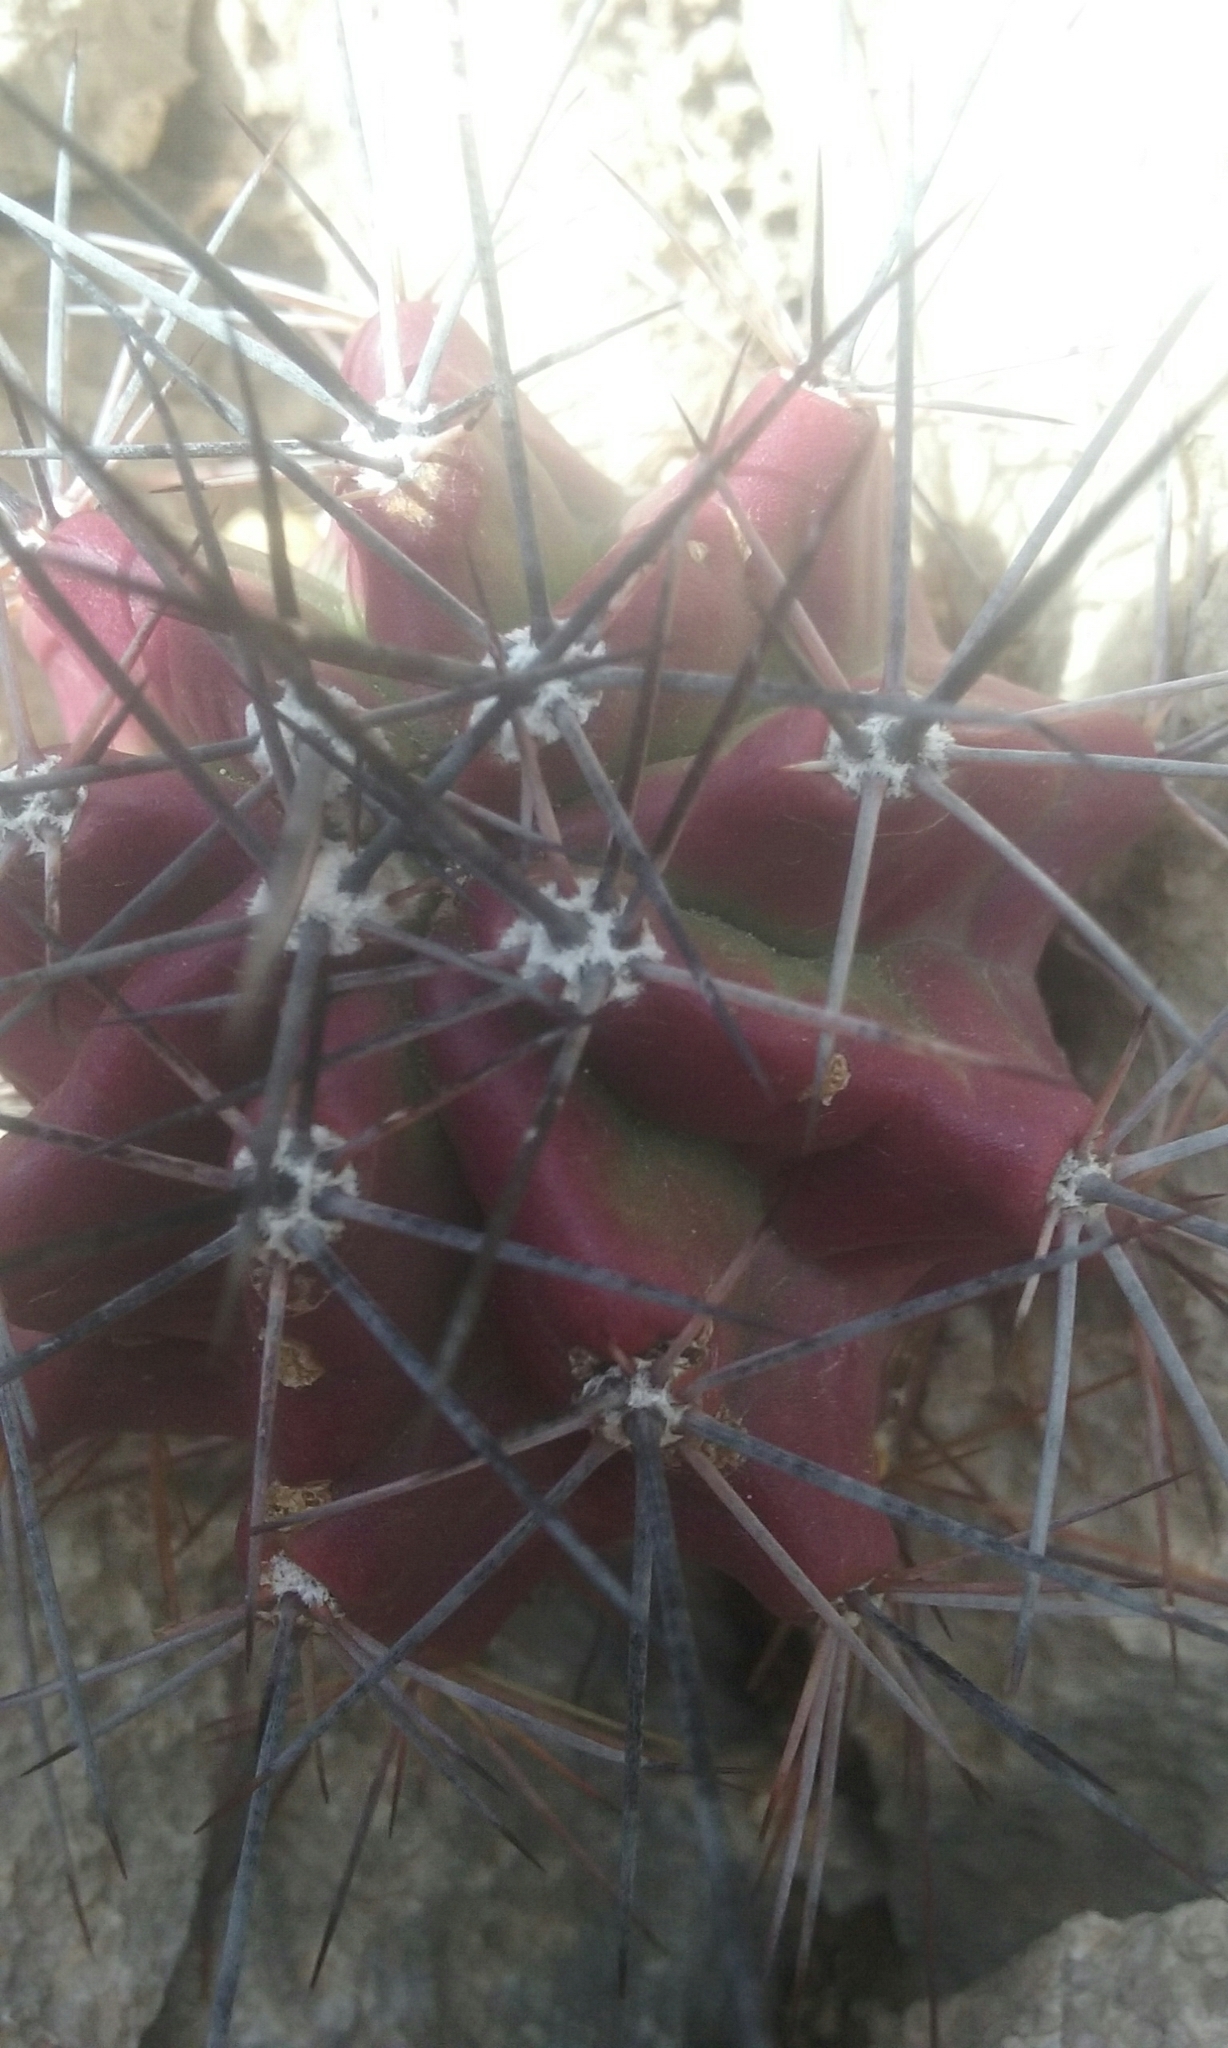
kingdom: Plantae
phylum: Tracheophyta
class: Magnoliopsida
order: Caryophyllales
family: Cactaceae
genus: Echinocereus
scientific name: Echinocereus coccineus
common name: Scarlet hedgehog cactus
